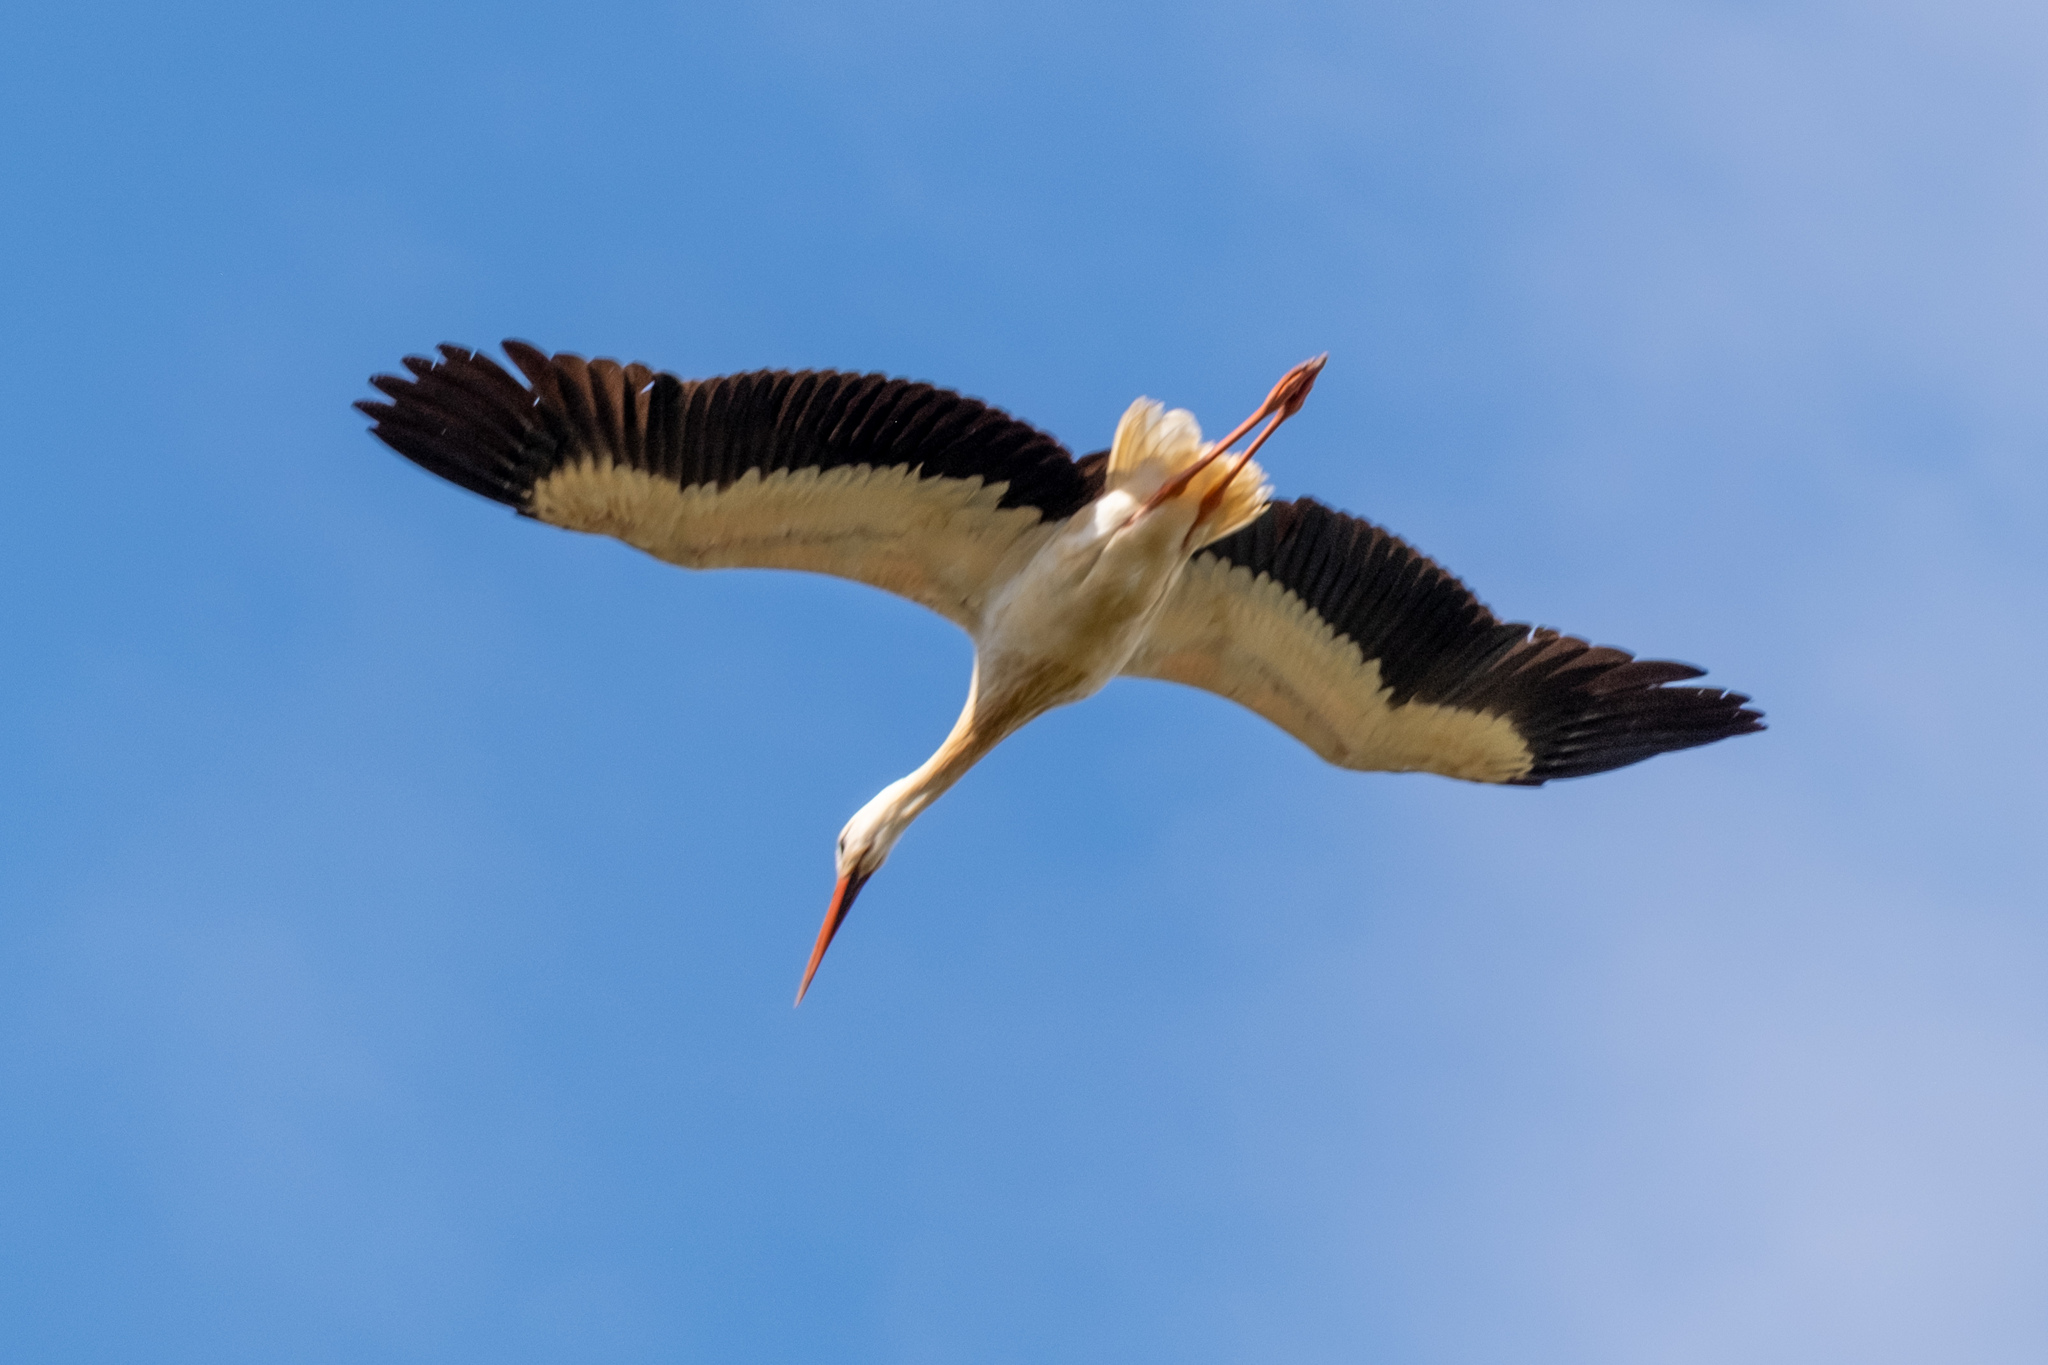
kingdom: Animalia
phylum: Chordata
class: Aves
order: Ciconiiformes
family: Ciconiidae
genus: Ciconia
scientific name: Ciconia ciconia
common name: White stork
